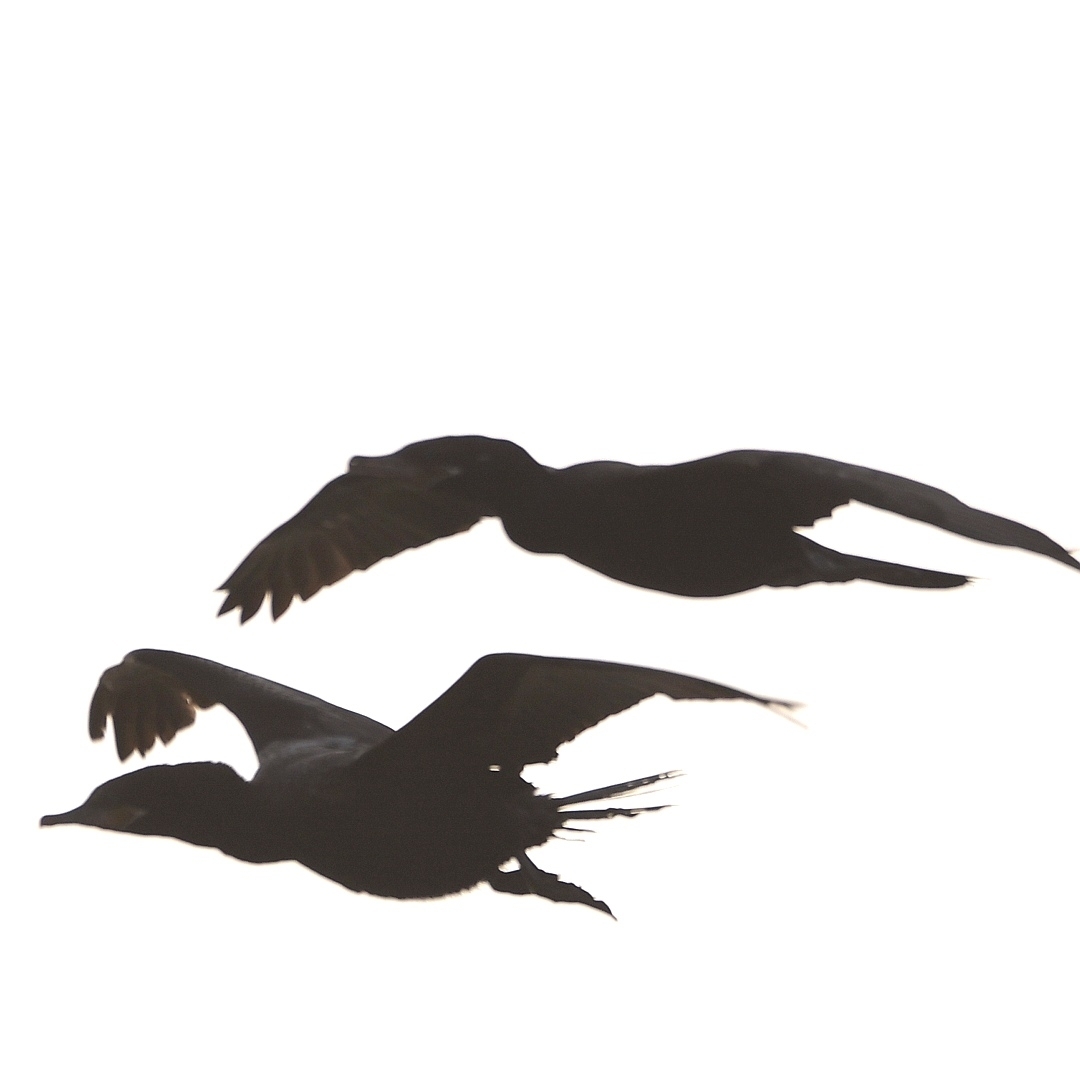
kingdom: Animalia
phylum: Chordata
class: Aves
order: Suliformes
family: Phalacrocoracidae
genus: Phalacrocorax
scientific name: Phalacrocorax brasilianus
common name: Neotropic cormorant
